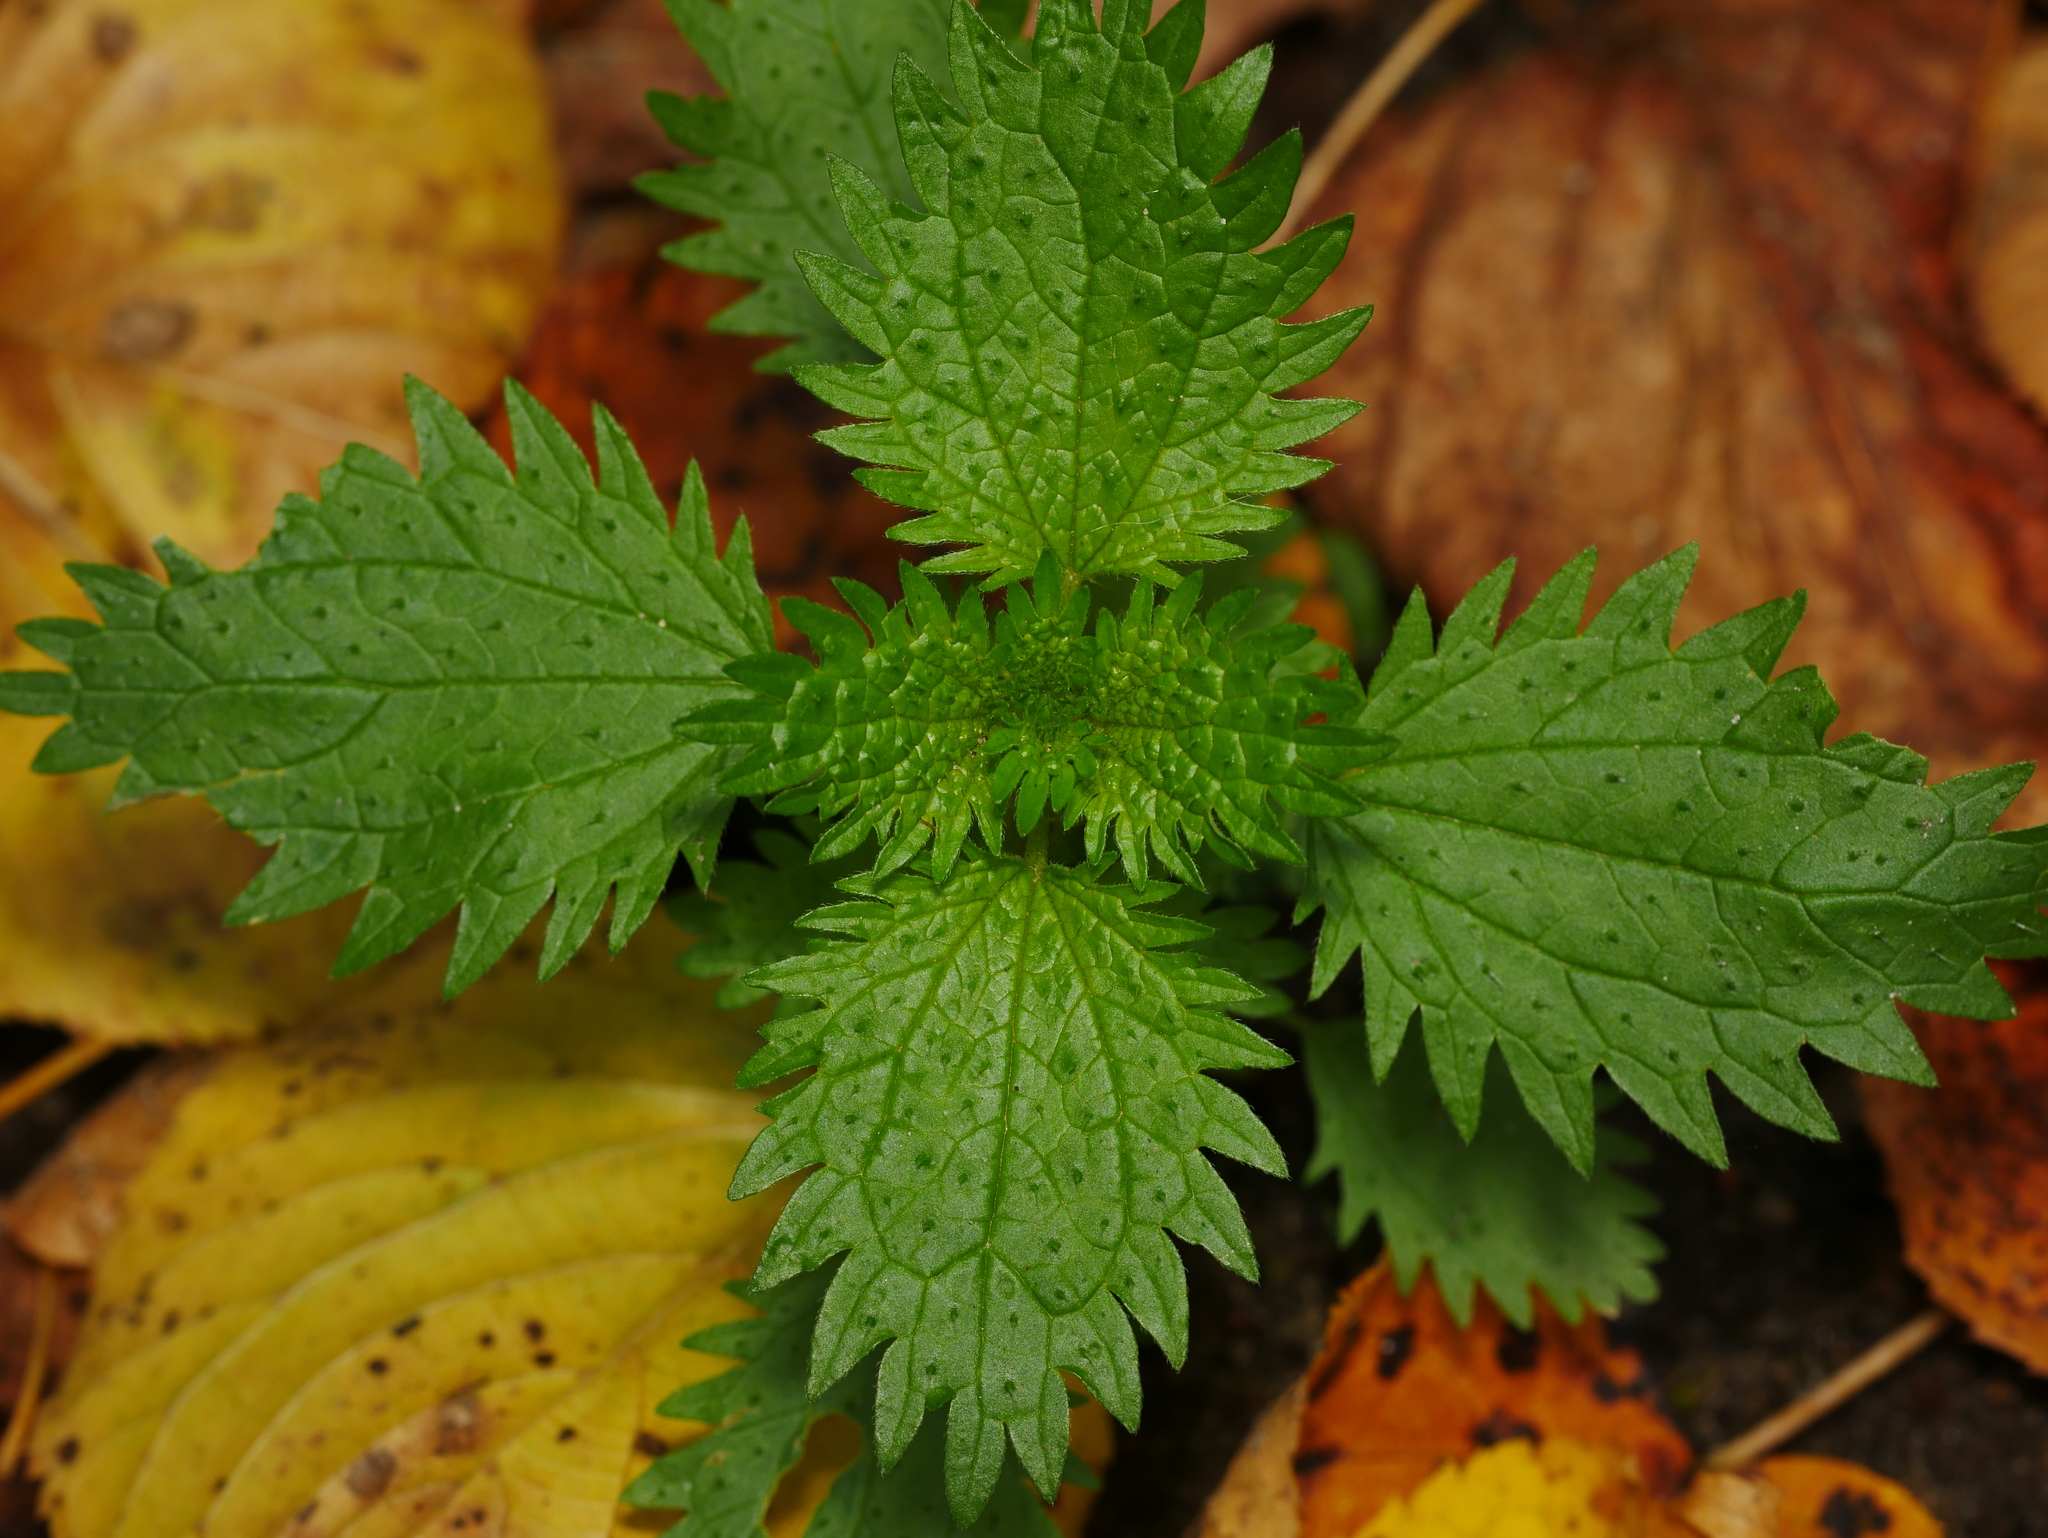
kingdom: Plantae
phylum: Tracheophyta
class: Magnoliopsida
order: Rosales
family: Urticaceae
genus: Urtica
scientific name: Urtica urens
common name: Dwarf nettle
